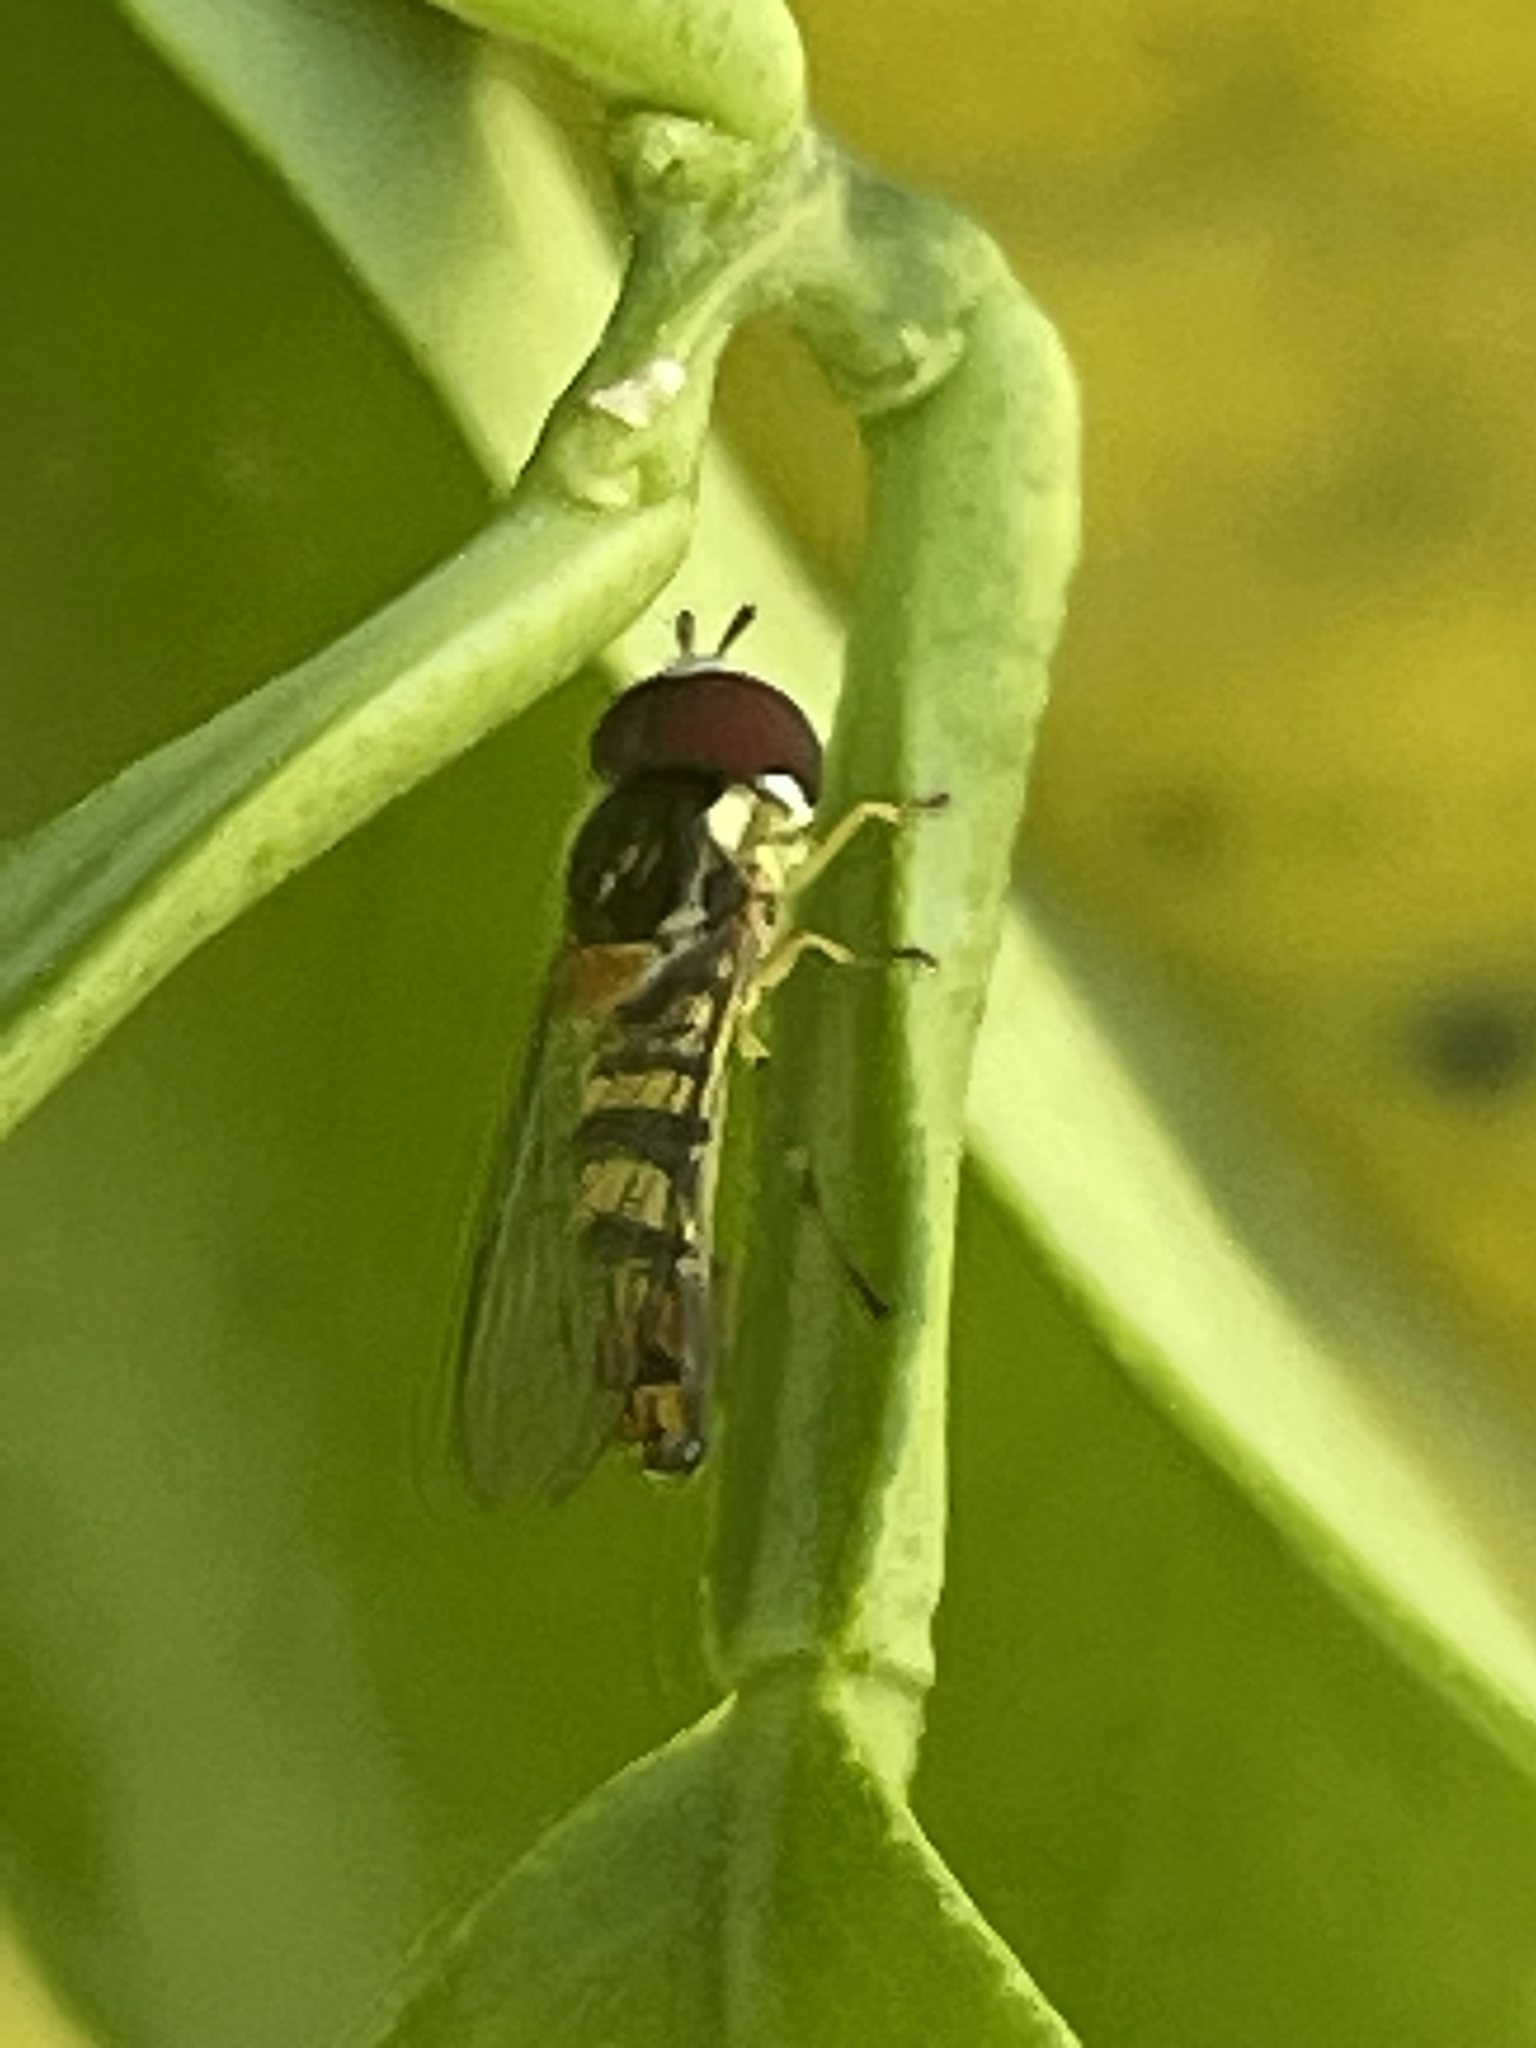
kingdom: Animalia
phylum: Arthropoda
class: Insecta
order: Diptera
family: Syrphidae
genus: Allograpta
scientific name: Allograpta obliqua
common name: Common oblique syrphid
